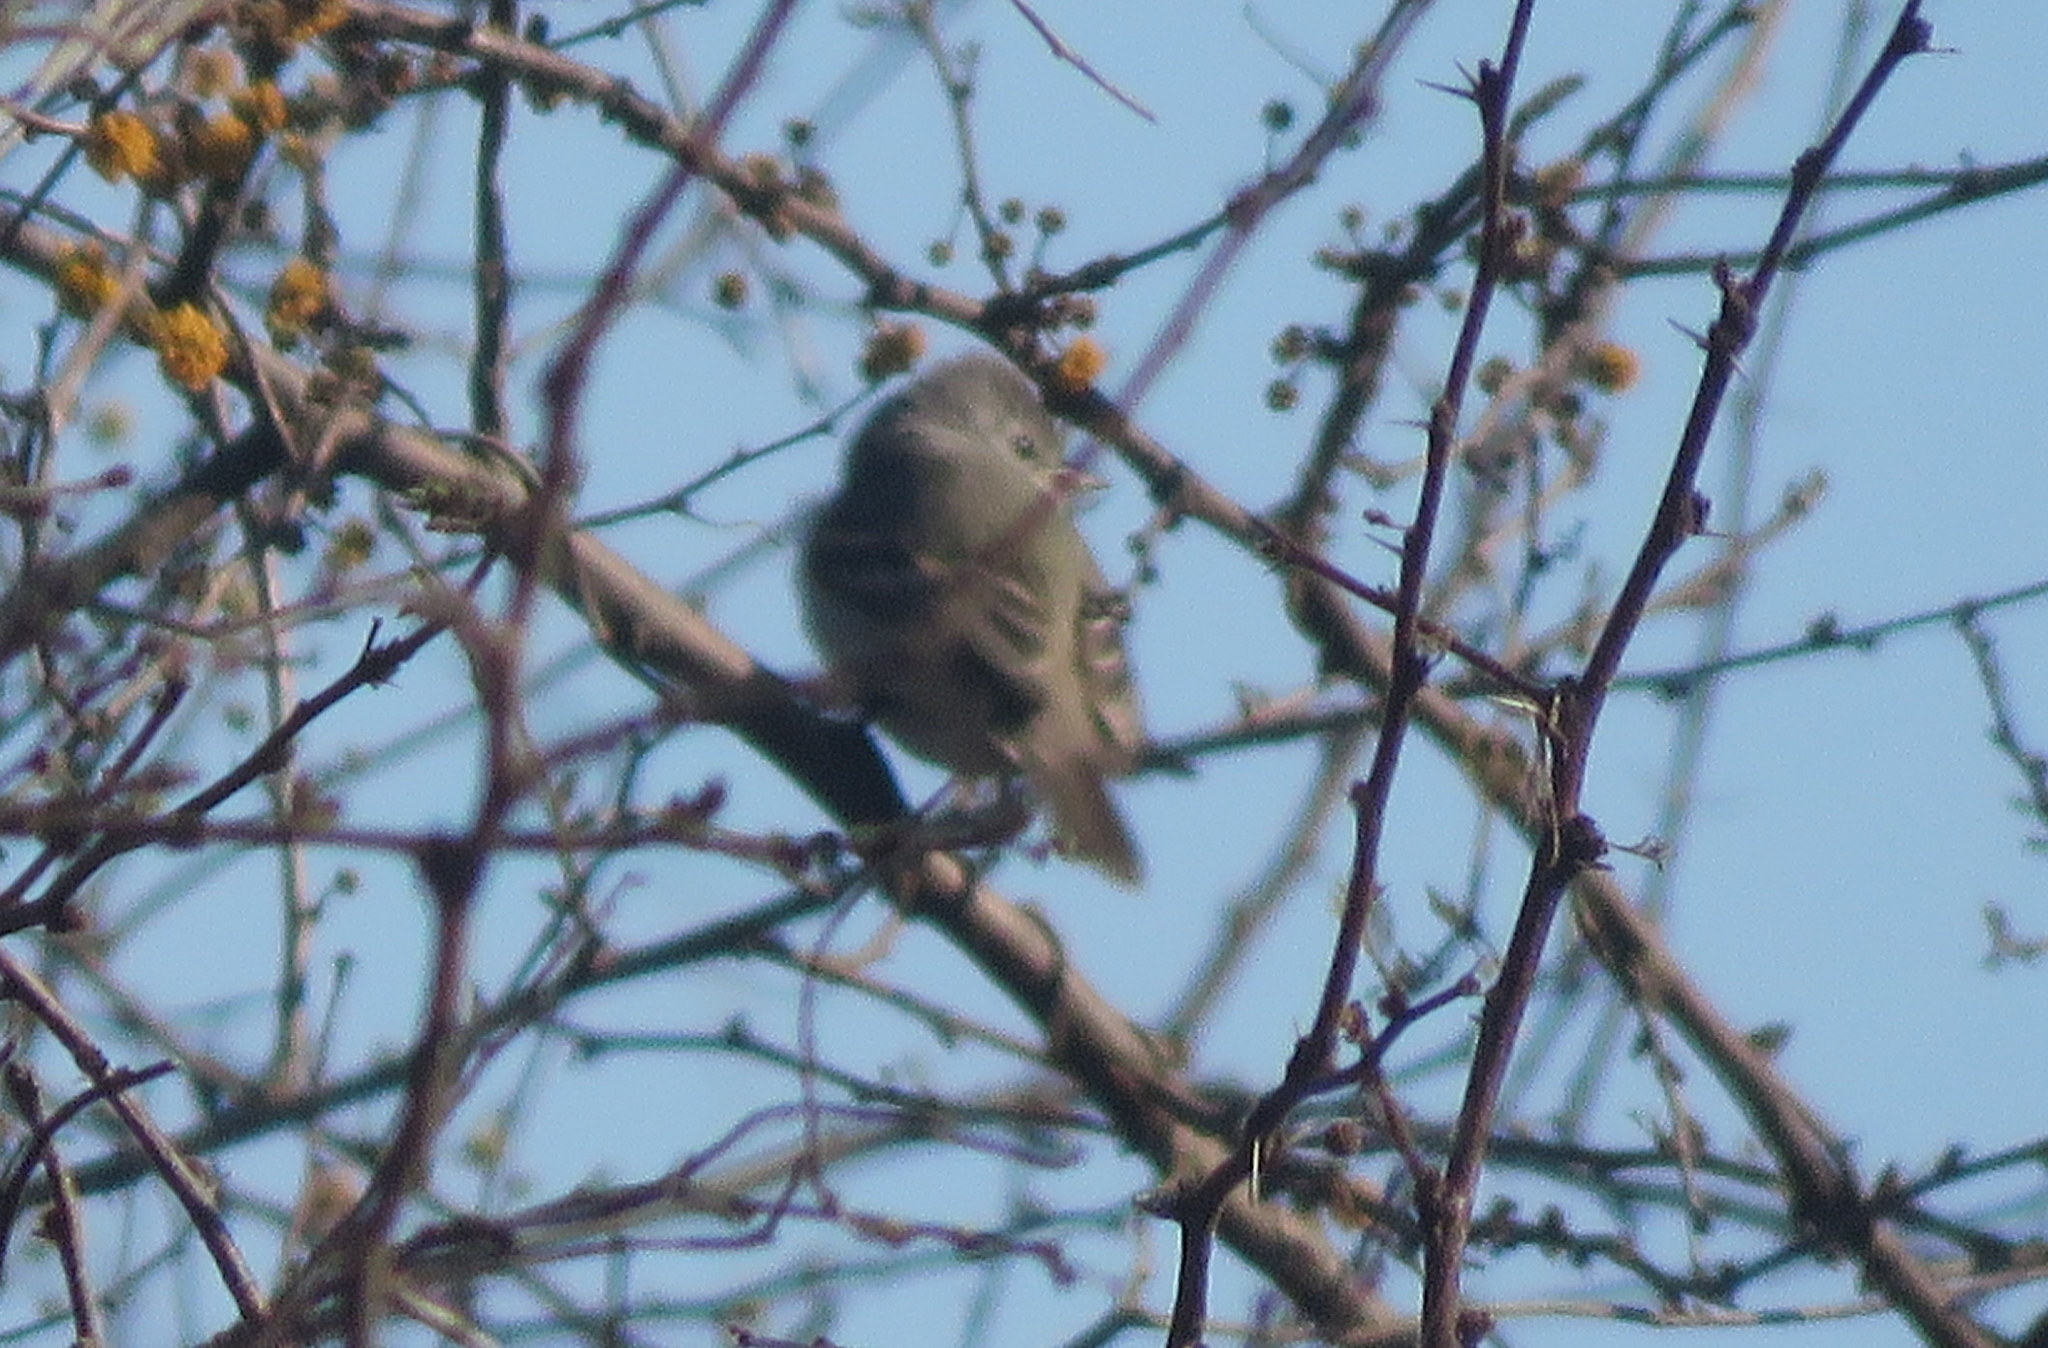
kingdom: Animalia
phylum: Chordata
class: Aves
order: Passeriformes
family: Tyrannidae
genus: Camptostoma
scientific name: Camptostoma obsoletum
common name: Southern beardless-tyrannulet
